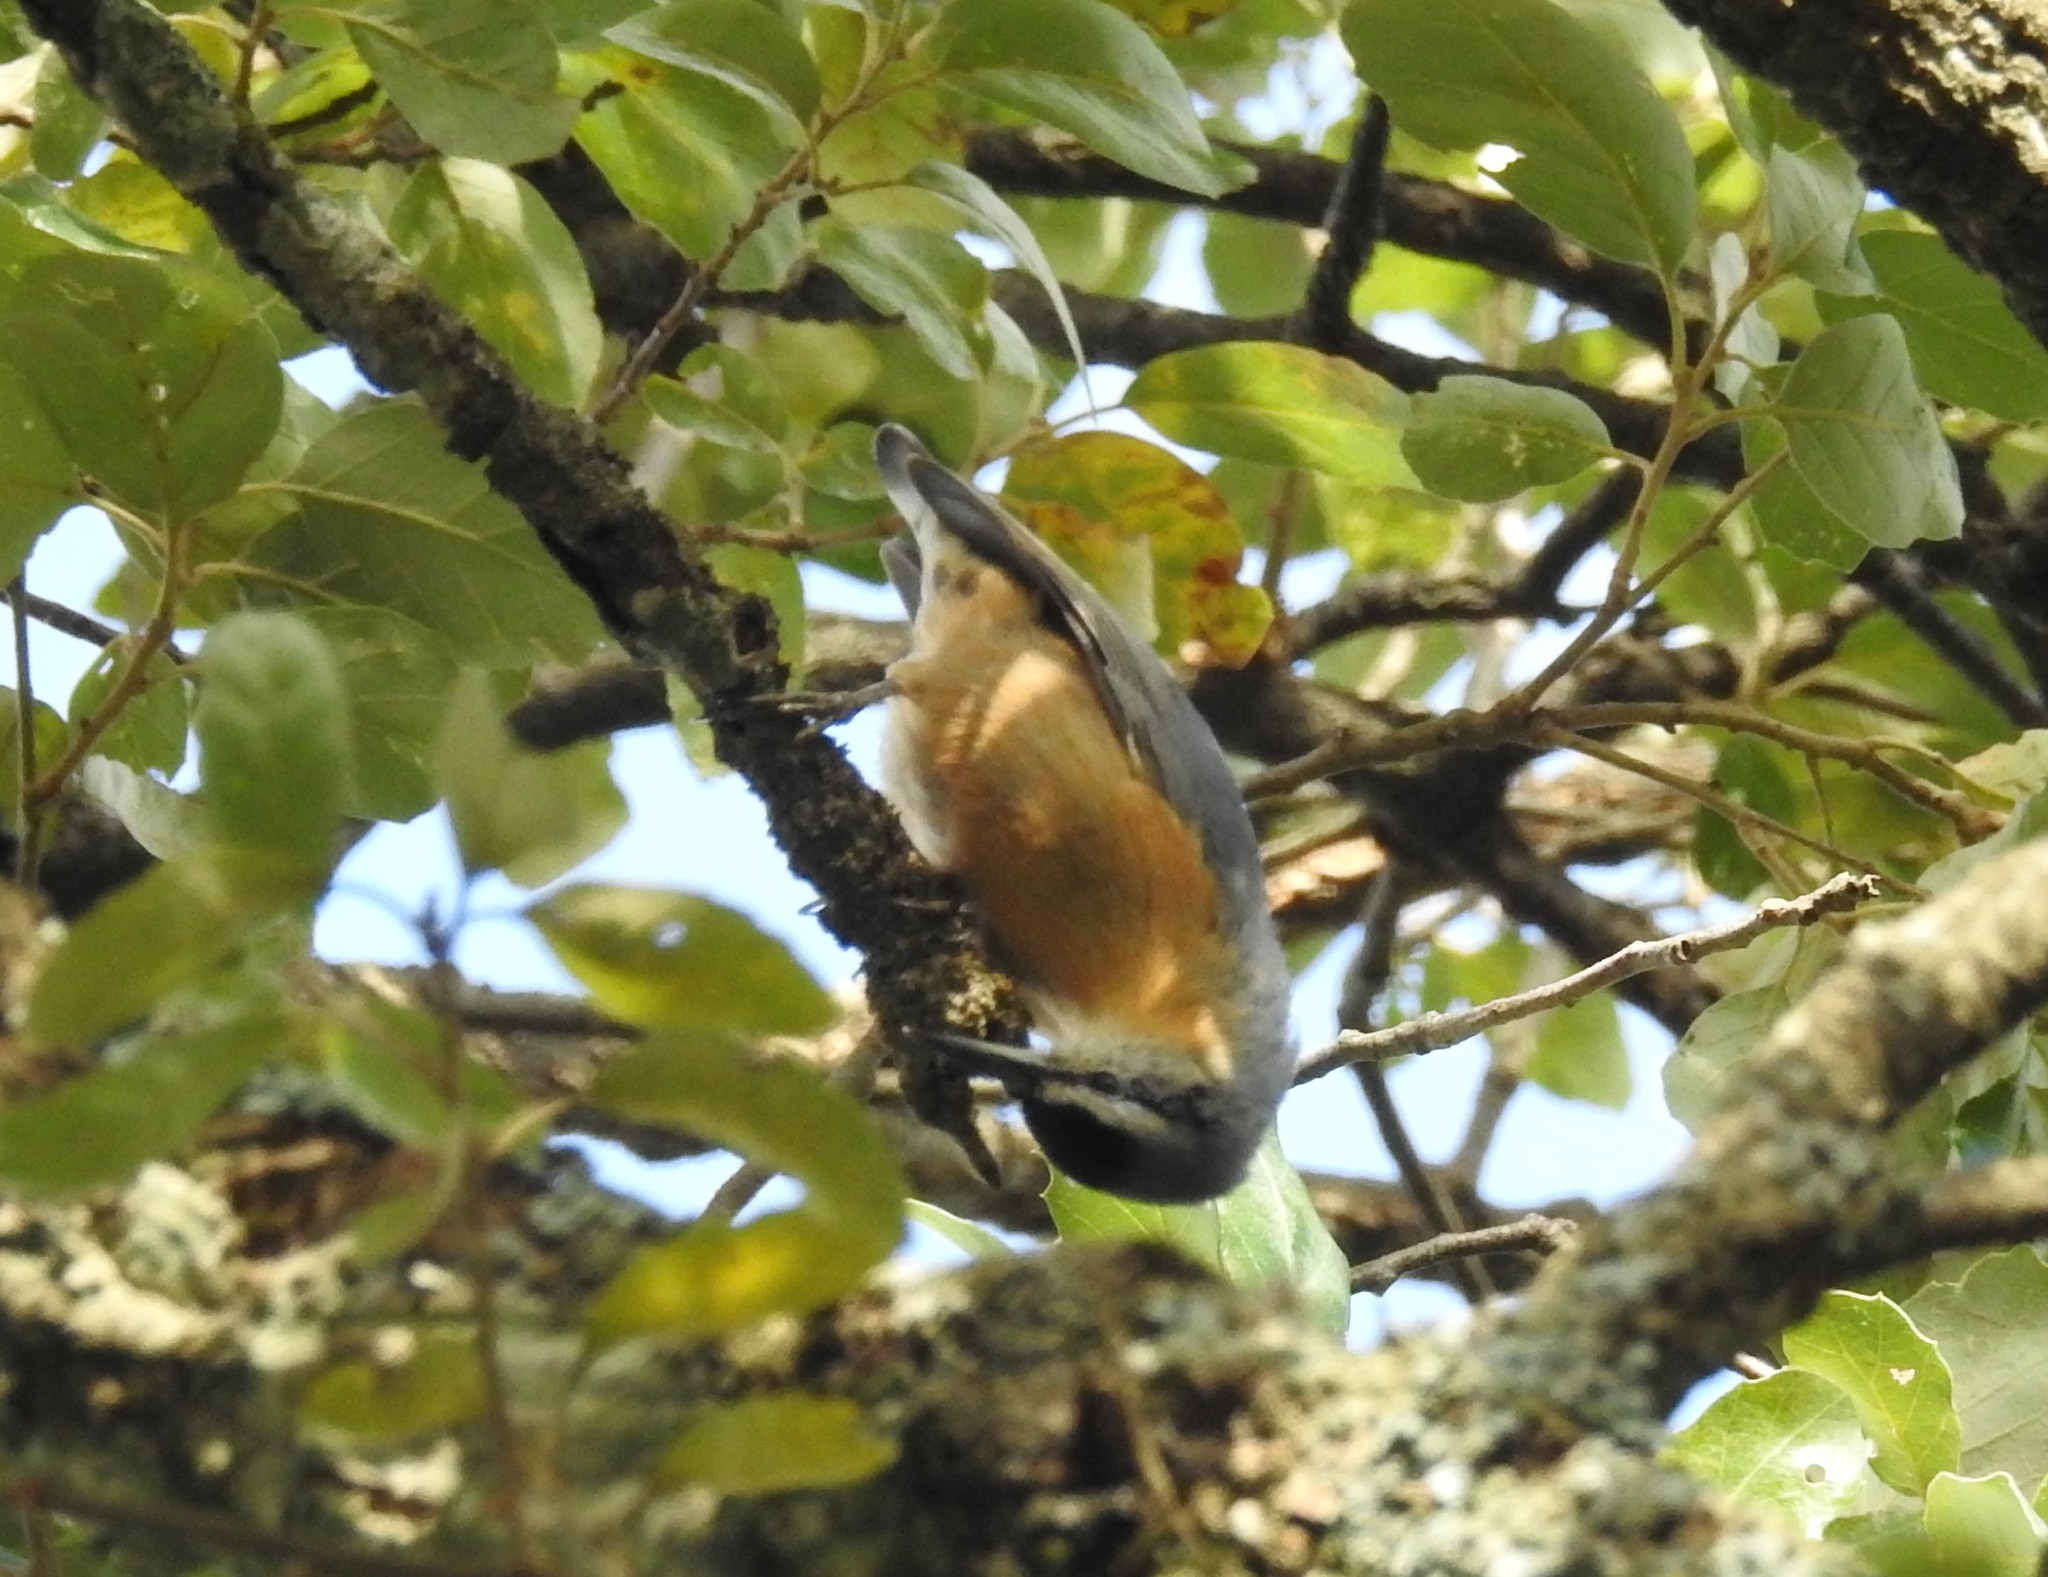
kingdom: Animalia
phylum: Chordata
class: Aves
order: Passeriformes
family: Sittidae
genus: Sitta
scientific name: Sitta ledanti
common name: Algerian nuthatch
